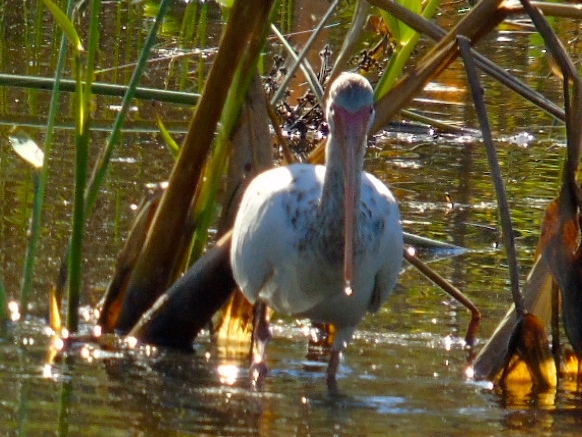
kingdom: Animalia
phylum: Chordata
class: Aves
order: Pelecaniformes
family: Threskiornithidae
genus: Eudocimus
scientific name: Eudocimus albus
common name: White ibis
